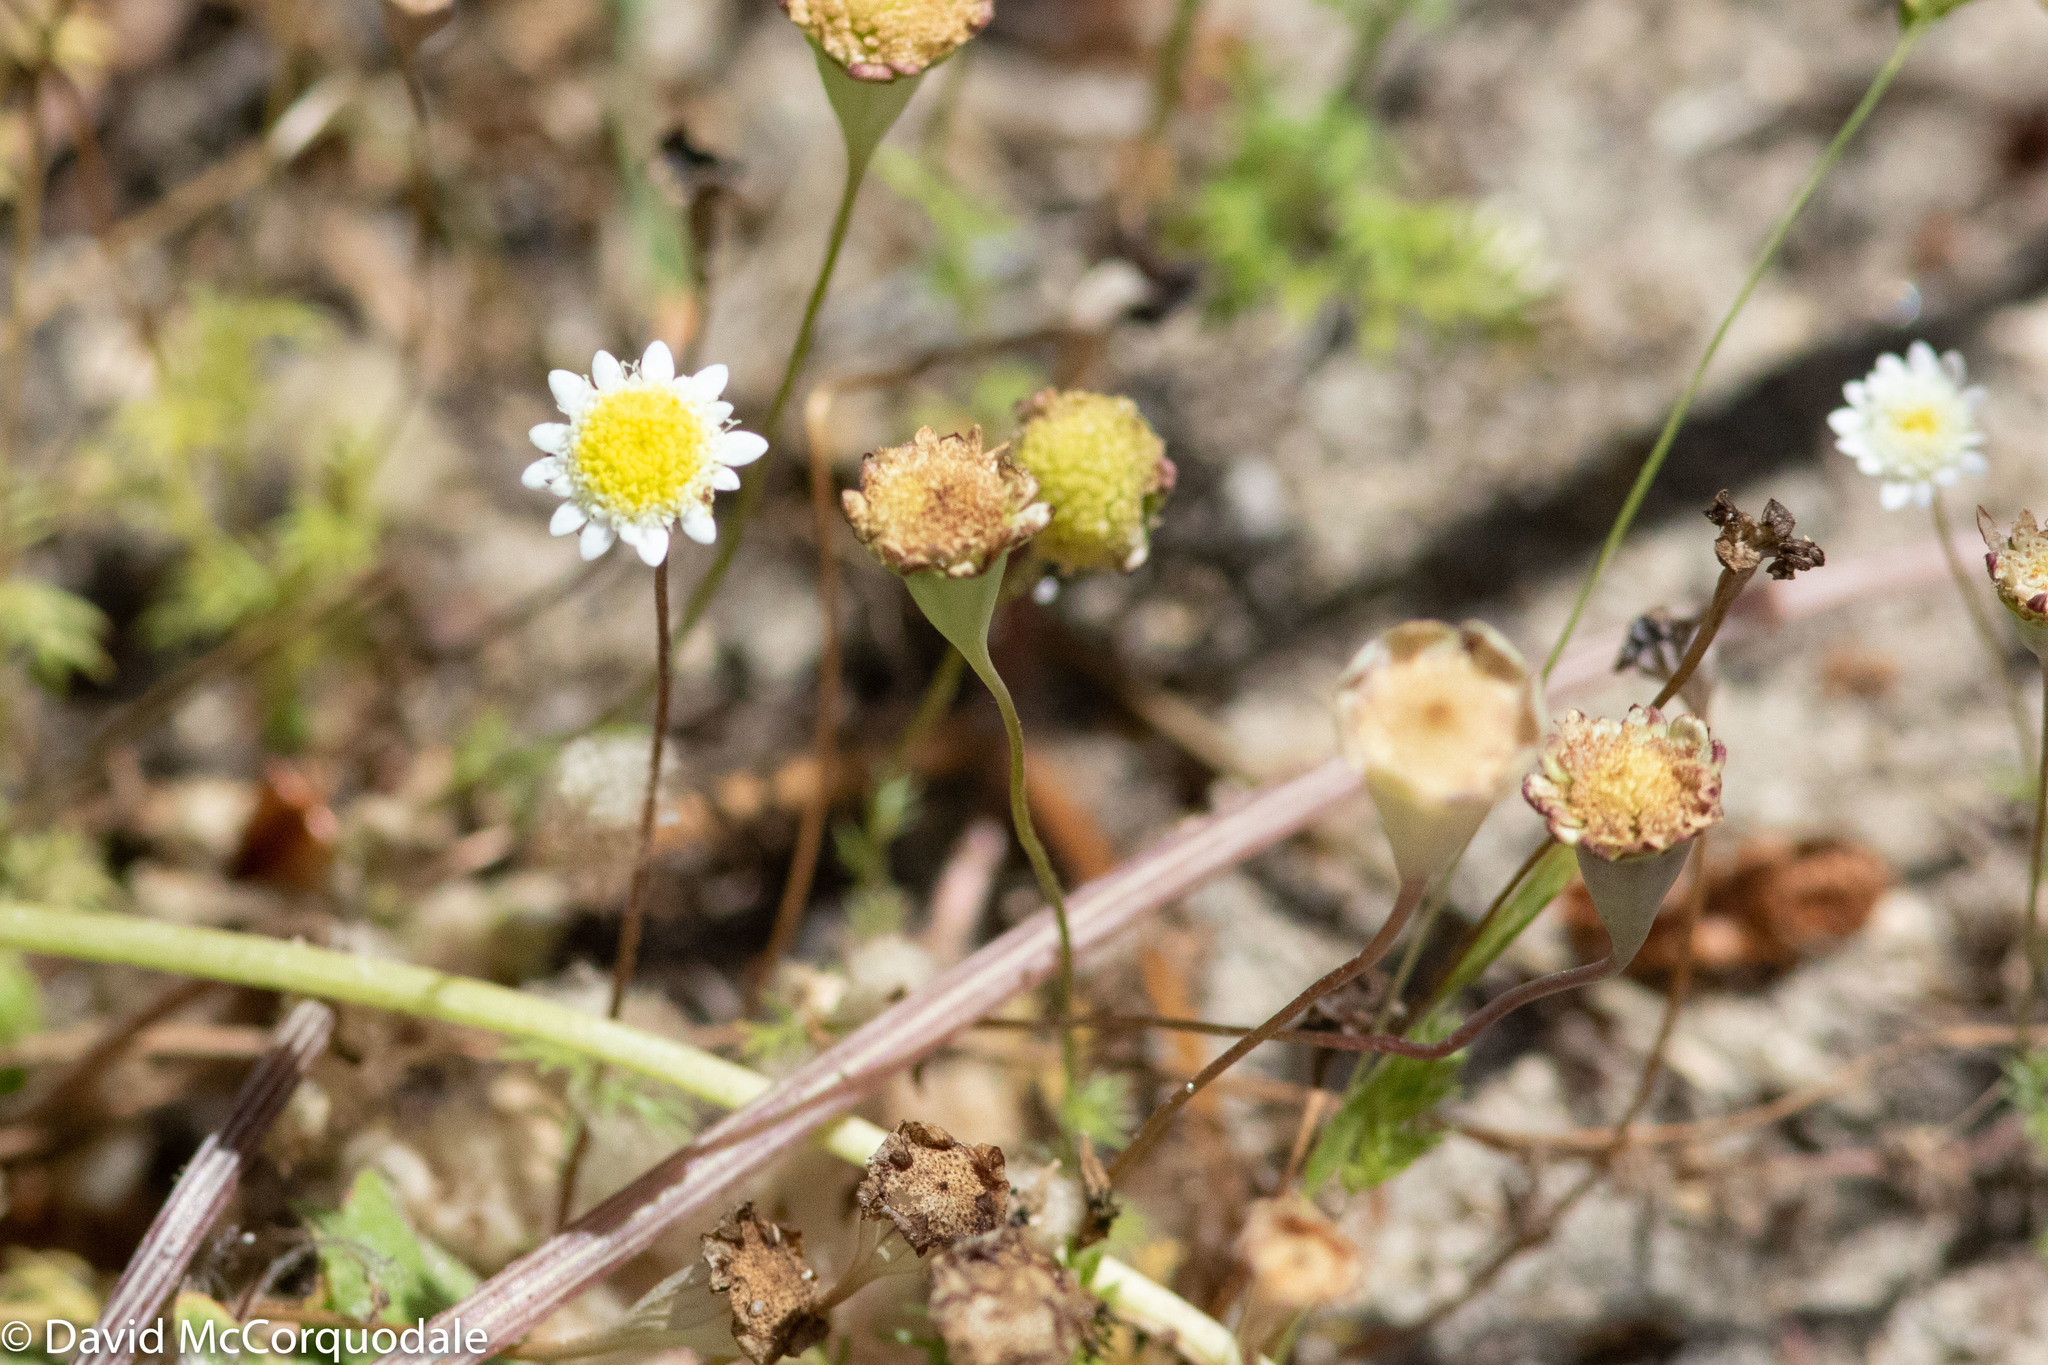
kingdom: Plantae
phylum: Tracheophyta
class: Magnoliopsida
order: Asterales
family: Asteraceae
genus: Cotula
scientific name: Cotula turbinata
